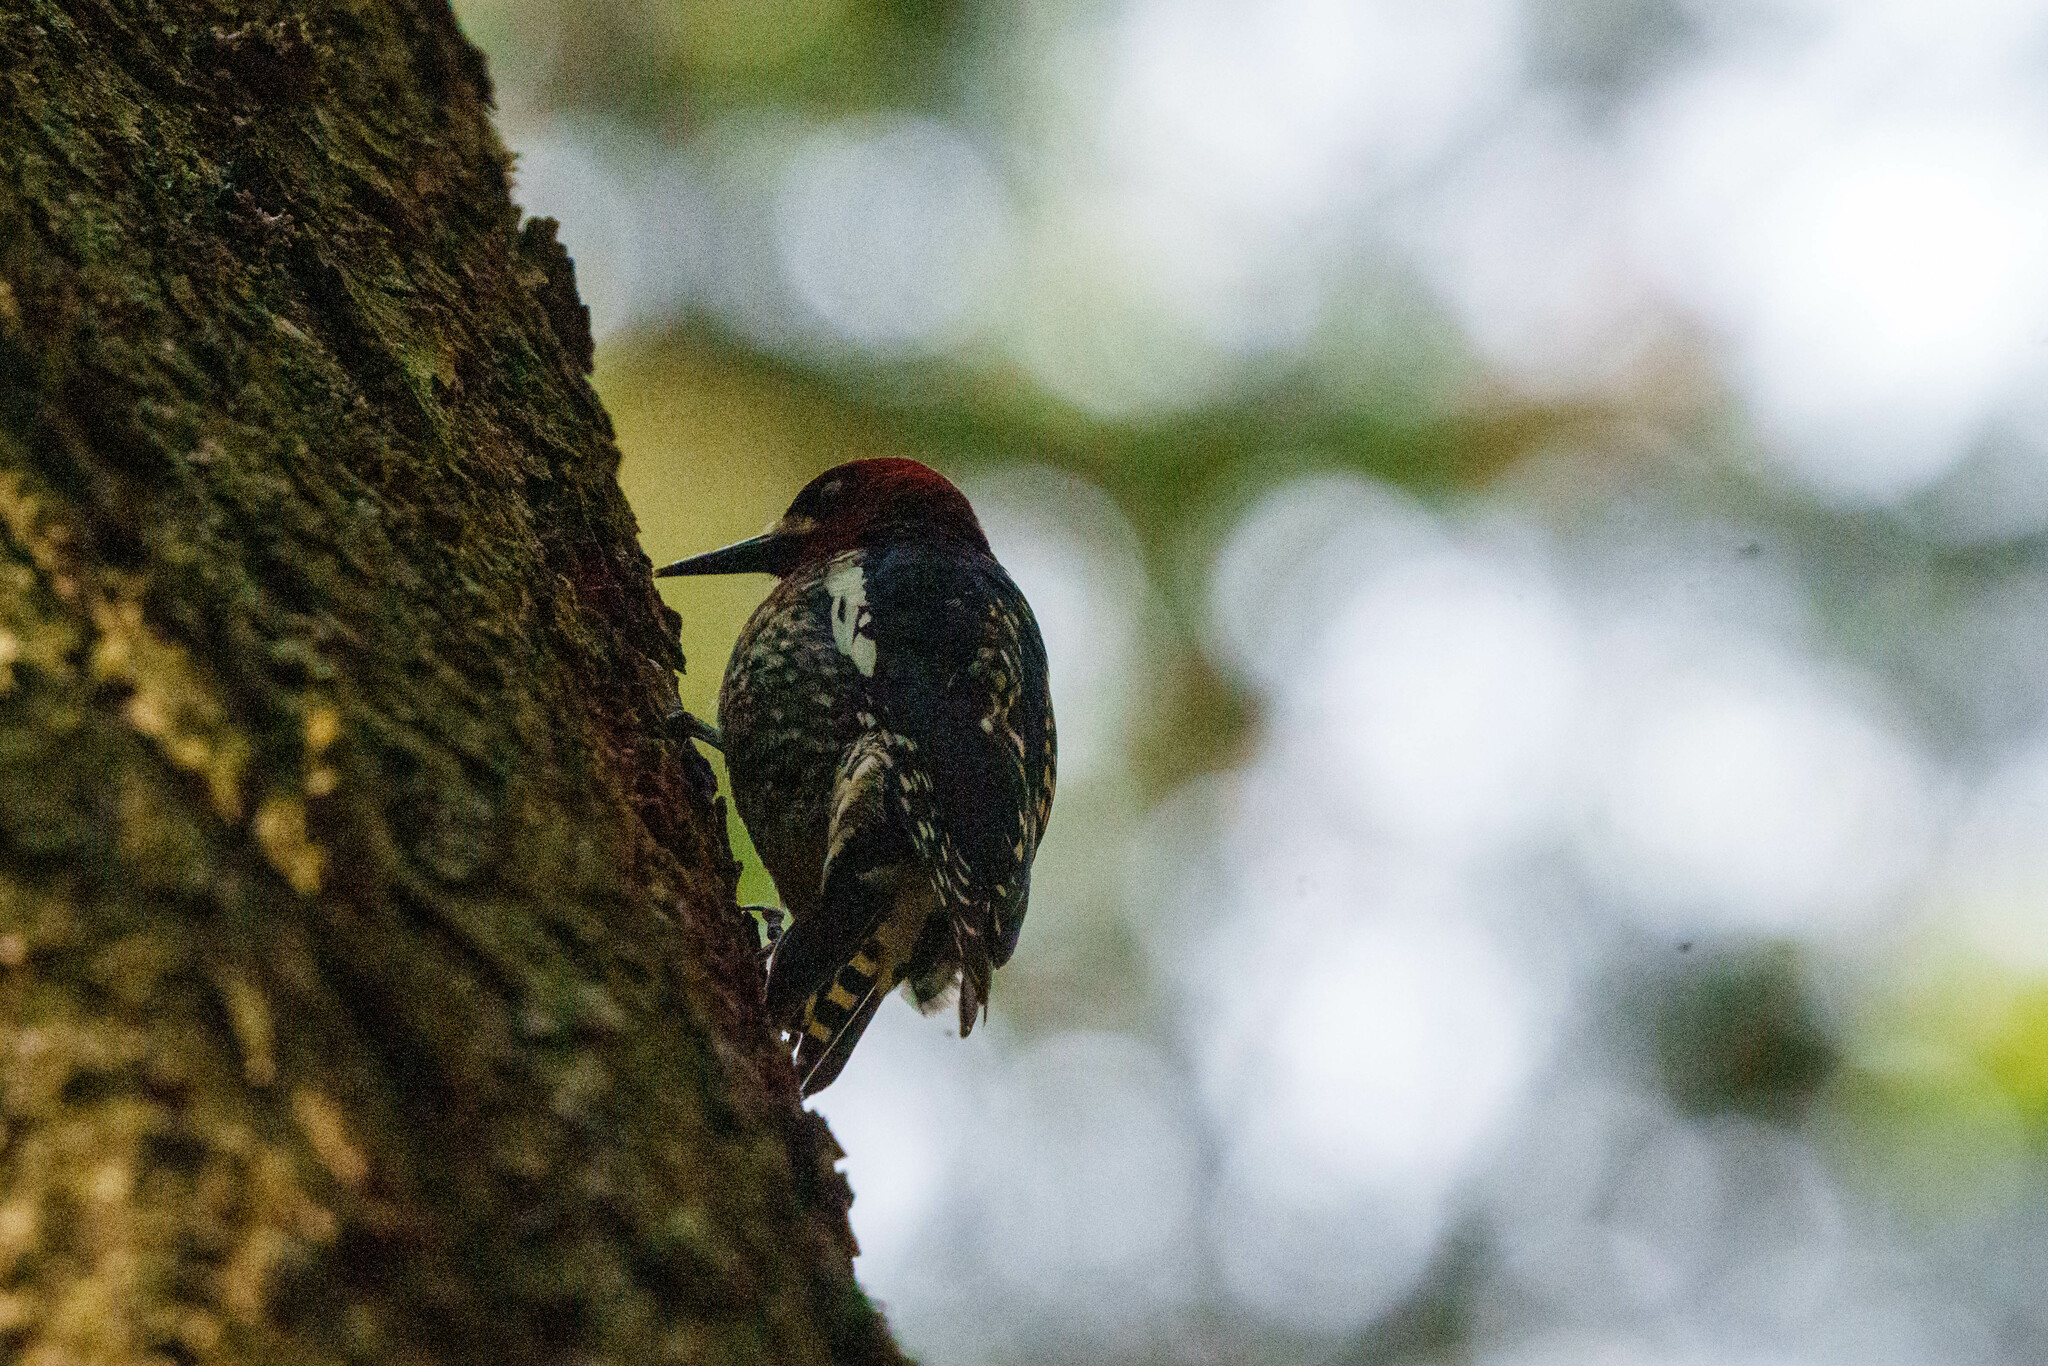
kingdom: Animalia
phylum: Chordata
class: Aves
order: Piciformes
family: Picidae
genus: Sphyrapicus
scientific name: Sphyrapicus ruber
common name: Red-breasted sapsucker
